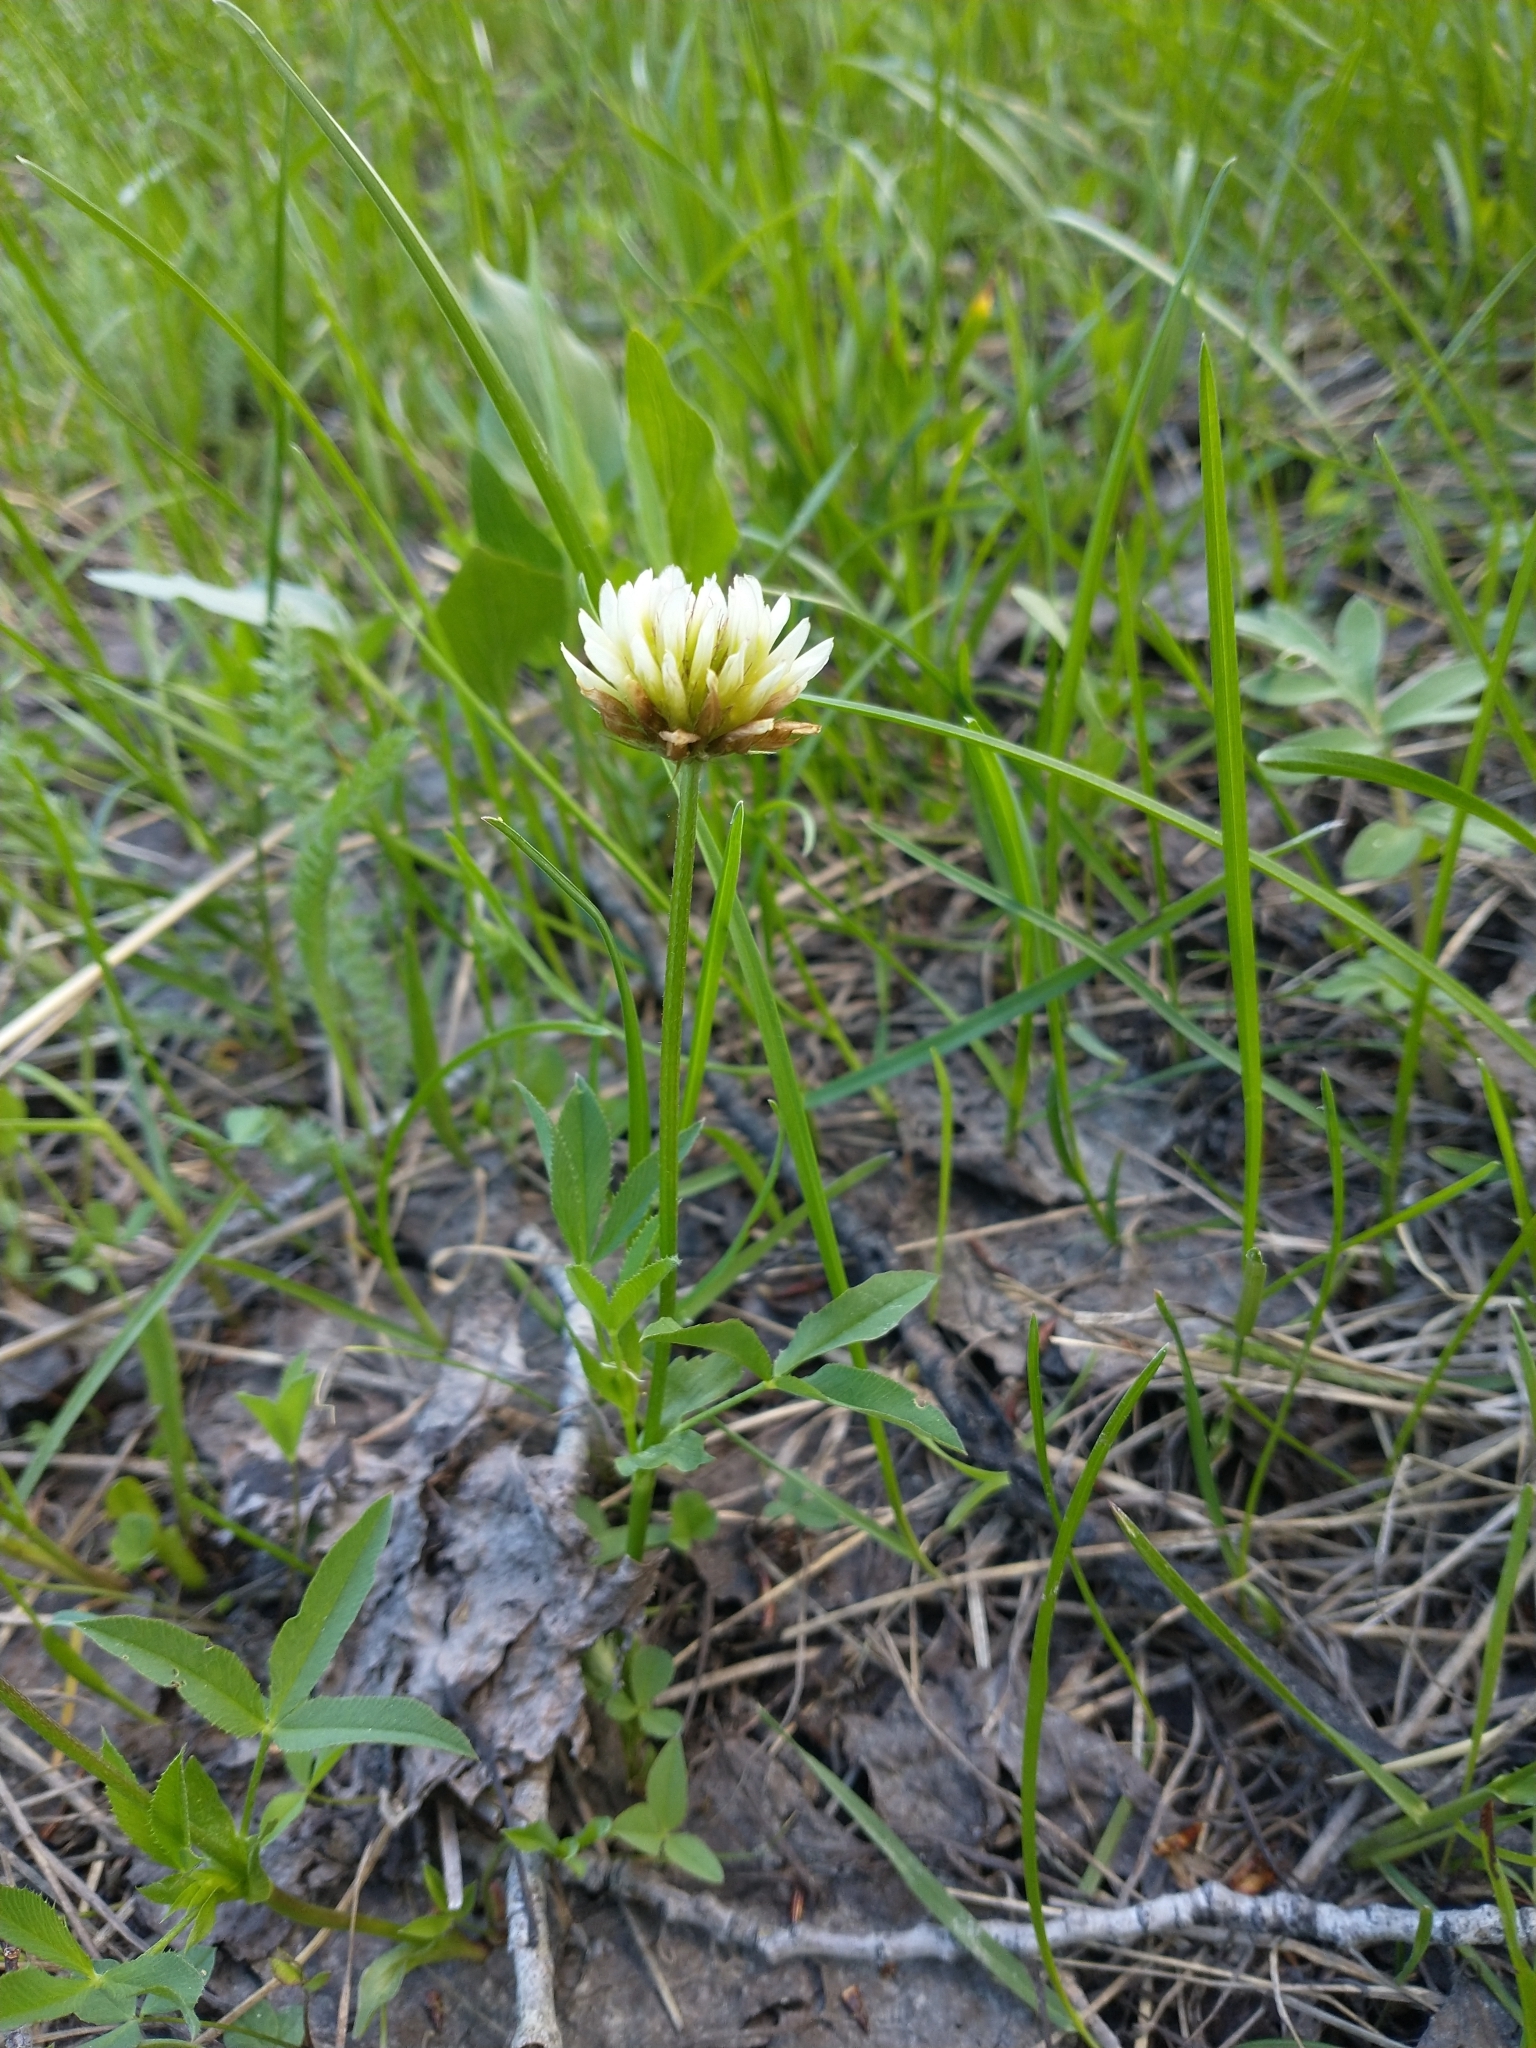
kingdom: Plantae
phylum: Tracheophyta
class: Magnoliopsida
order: Fabales
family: Fabaceae
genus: Trifolium
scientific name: Trifolium longipes
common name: Long-stalk clover
